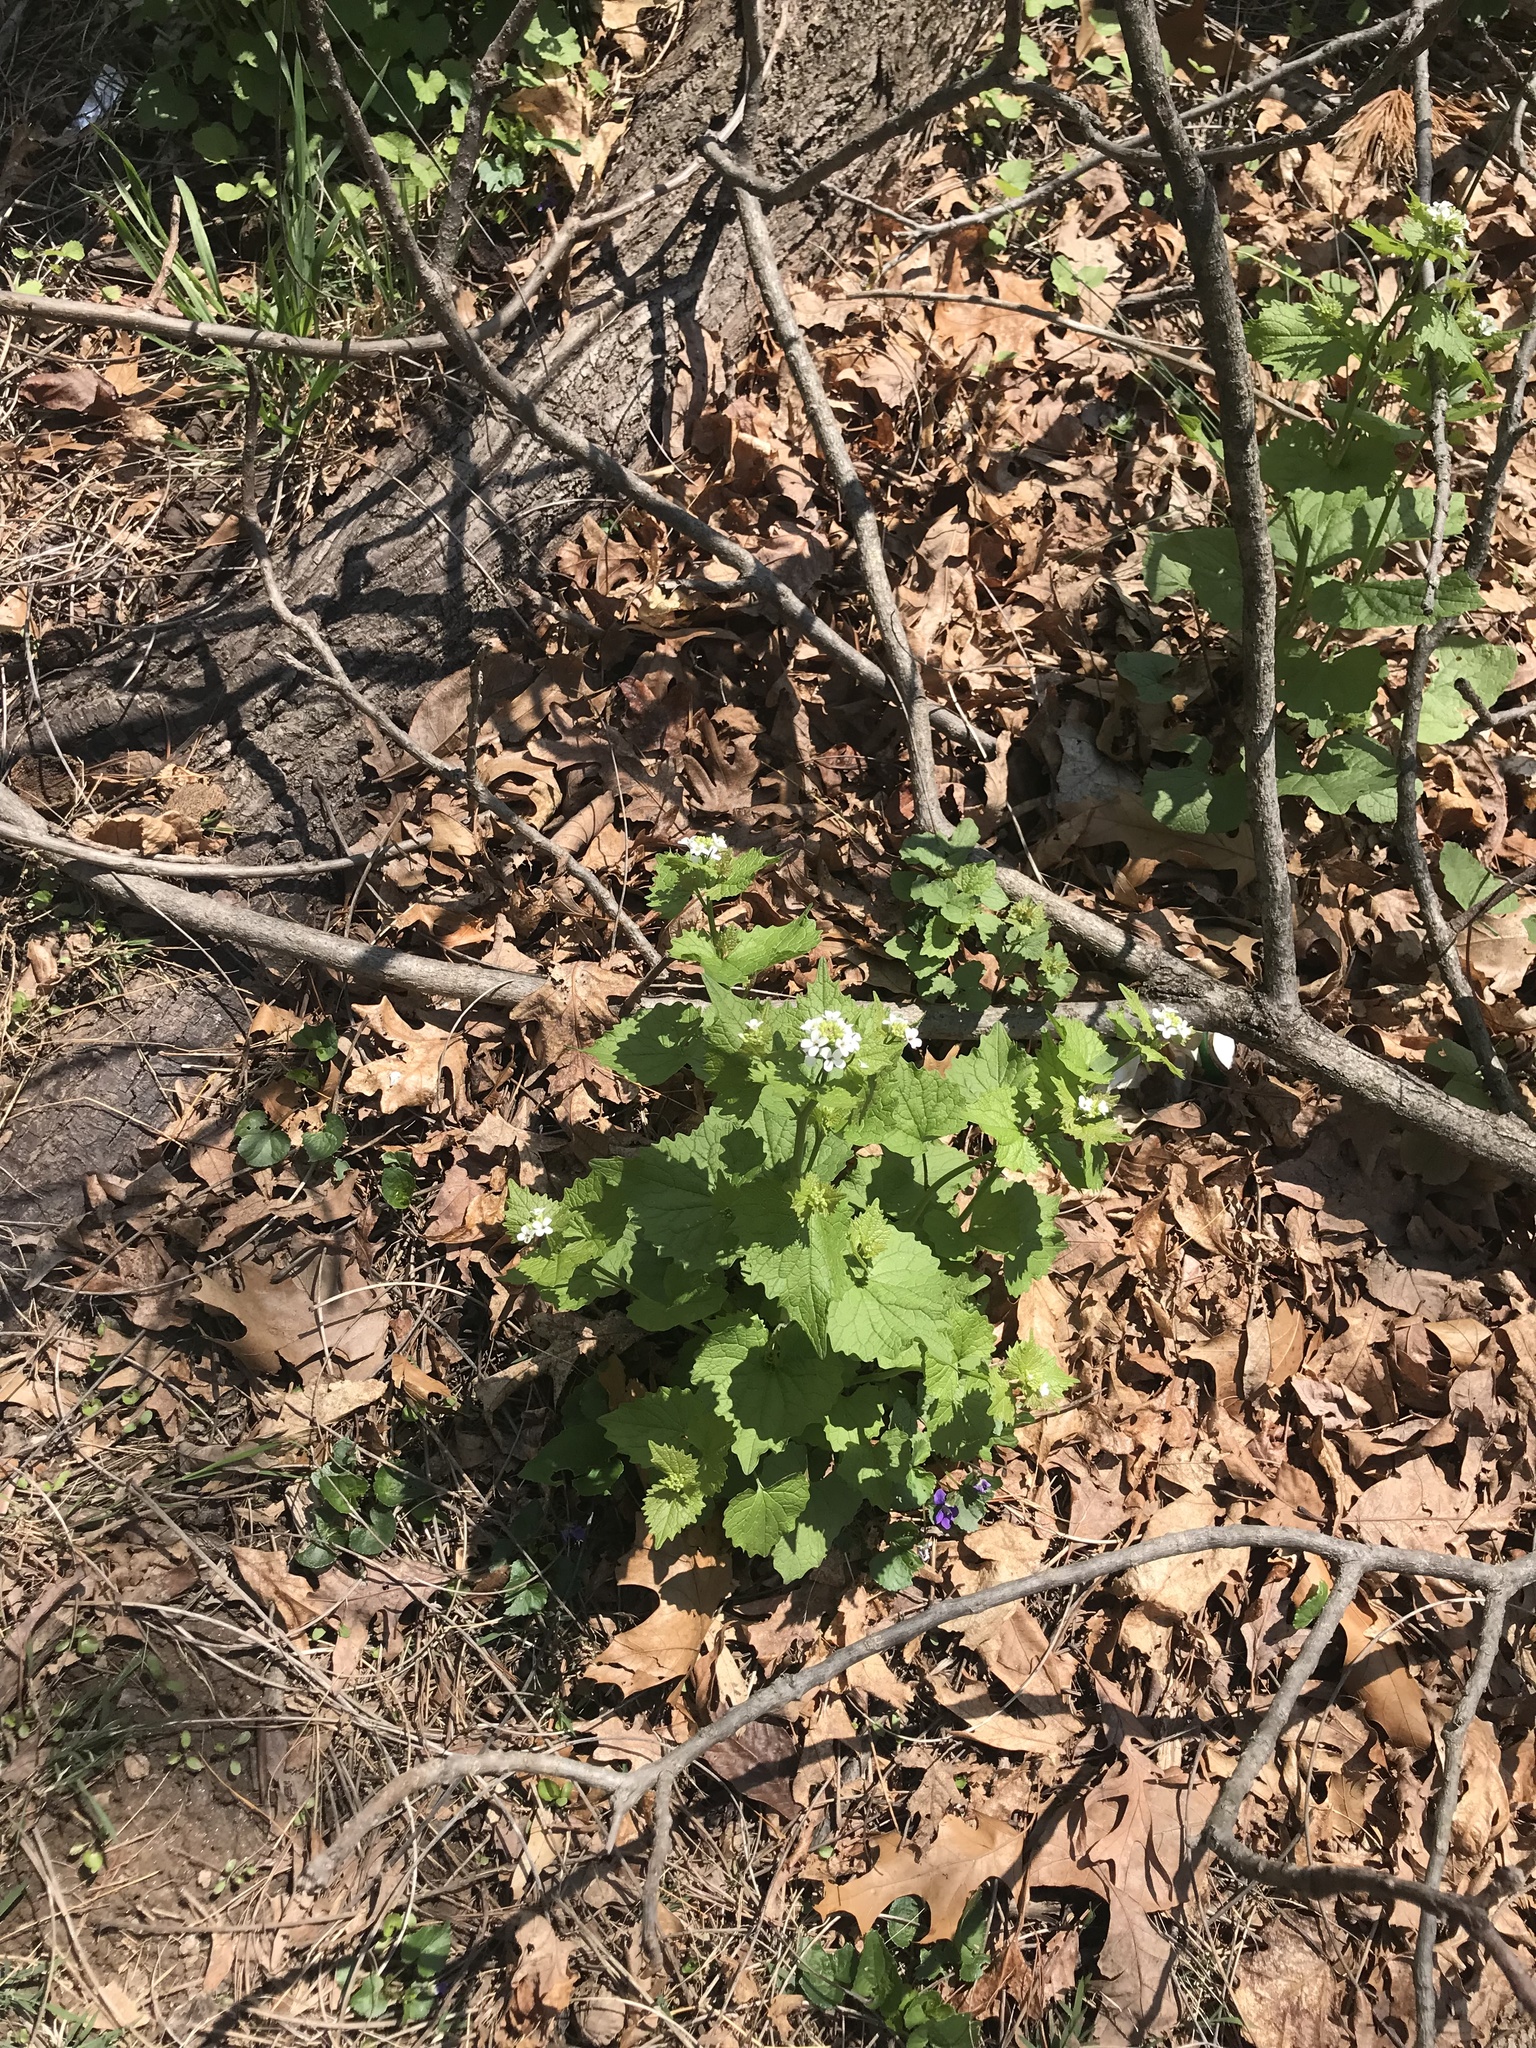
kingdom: Plantae
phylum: Tracheophyta
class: Magnoliopsida
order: Brassicales
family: Brassicaceae
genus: Alliaria
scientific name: Alliaria petiolata
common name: Garlic mustard
